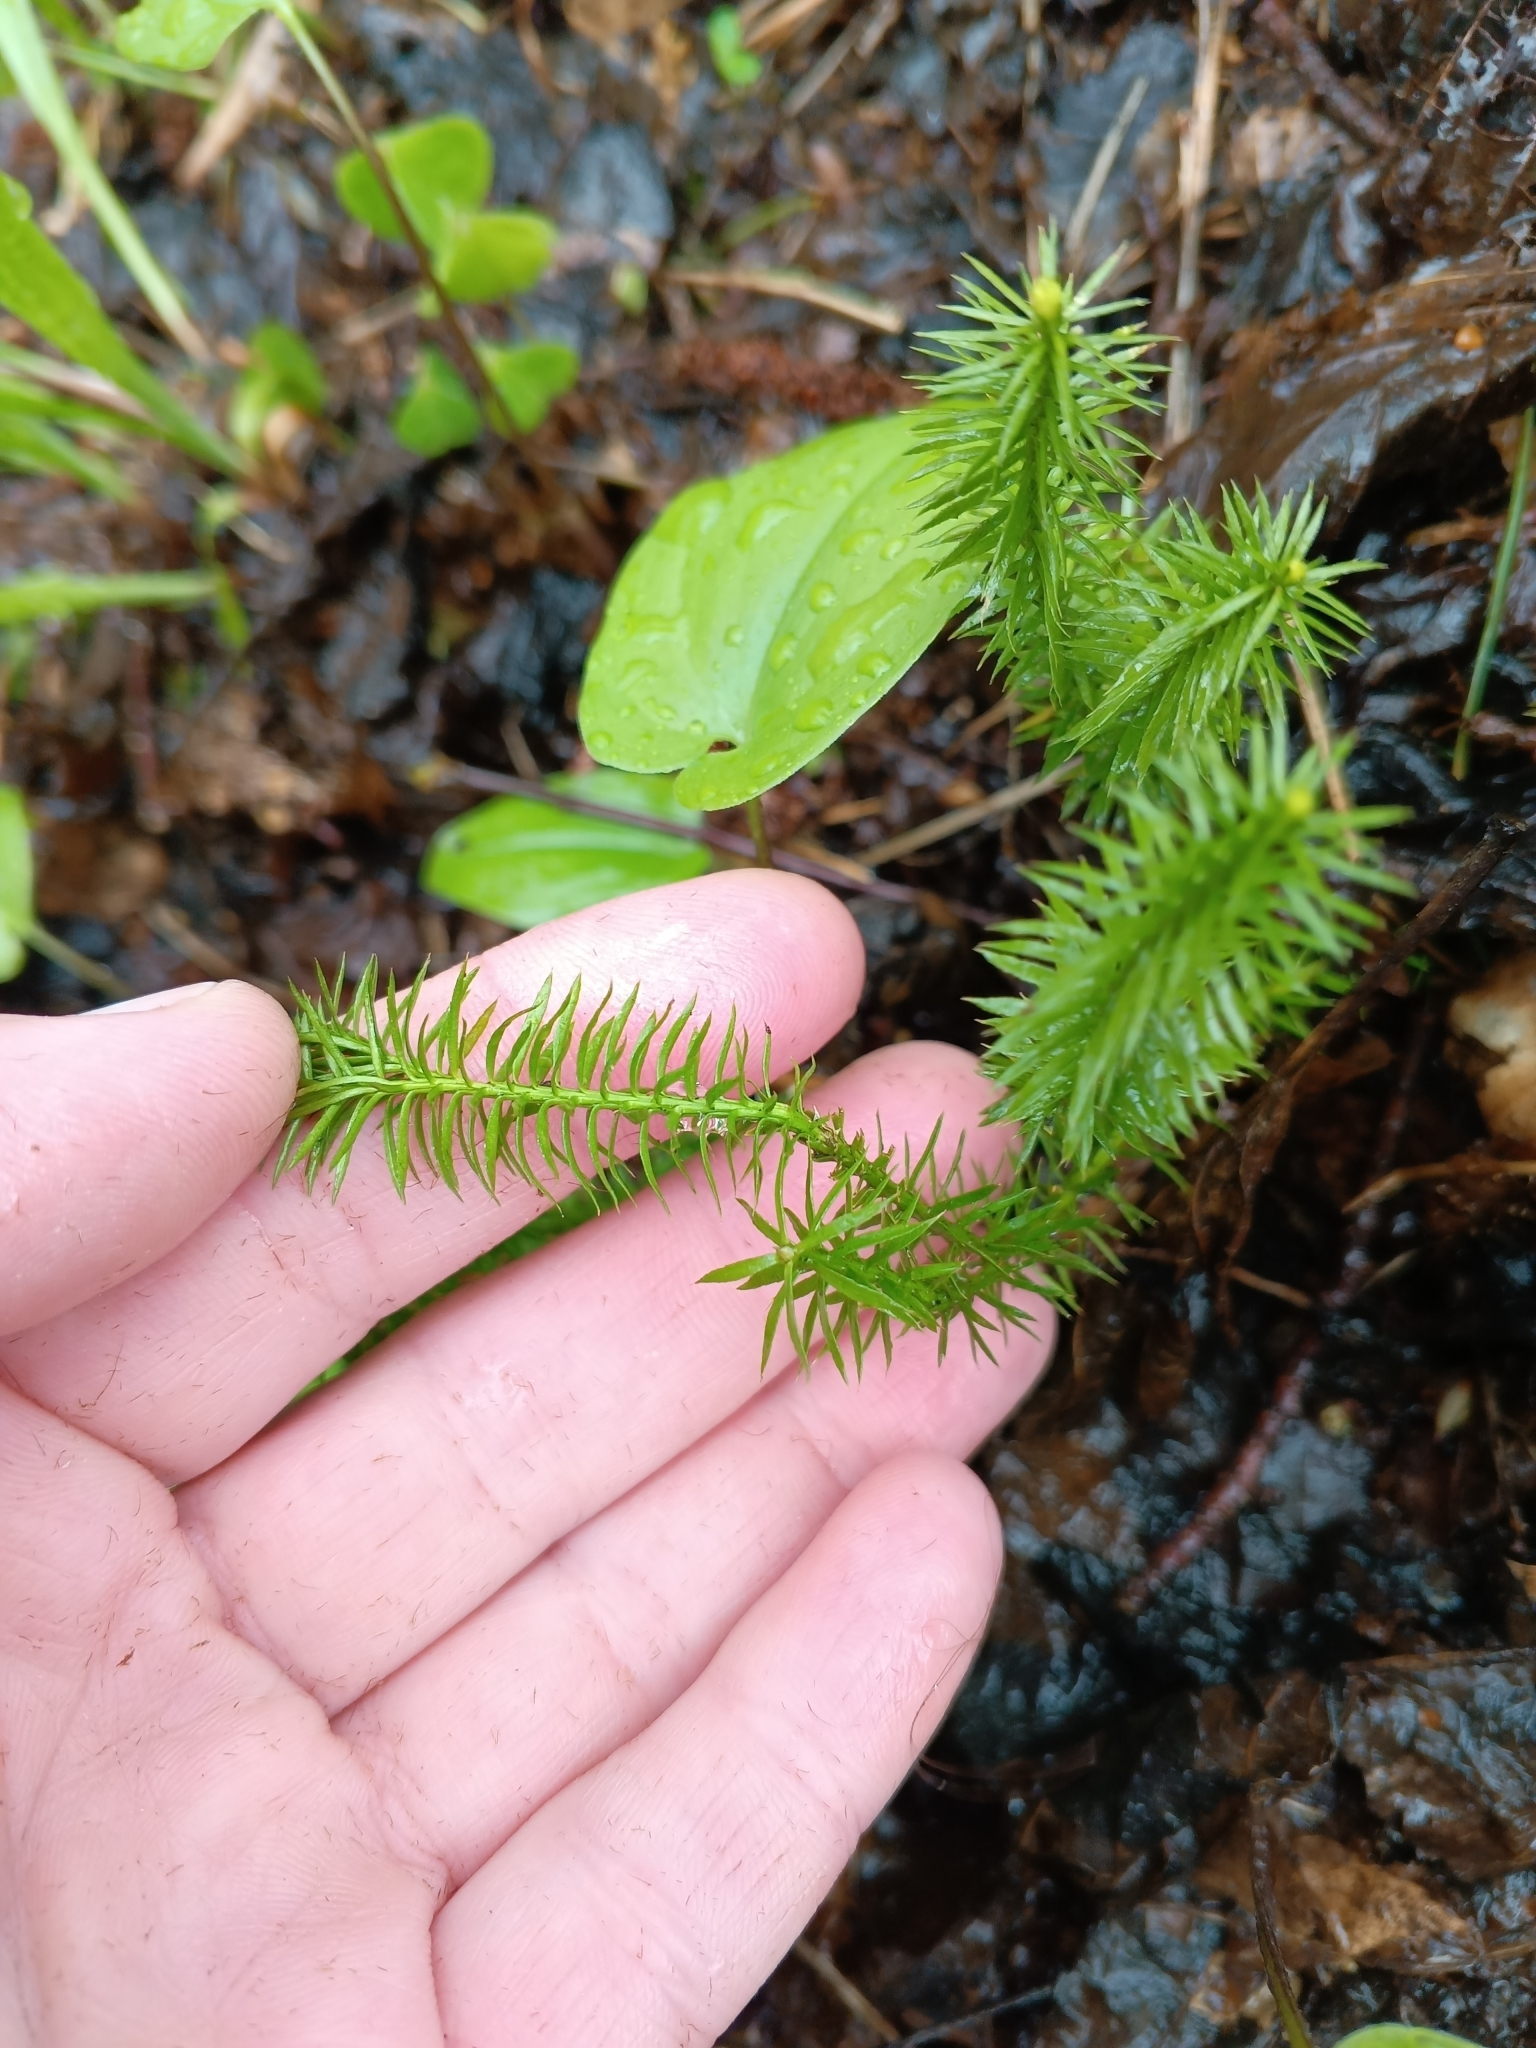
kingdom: Plantae
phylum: Tracheophyta
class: Lycopodiopsida
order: Lycopodiales
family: Lycopodiaceae
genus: Spinulum
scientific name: Spinulum annotinum
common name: Interrupted club-moss
